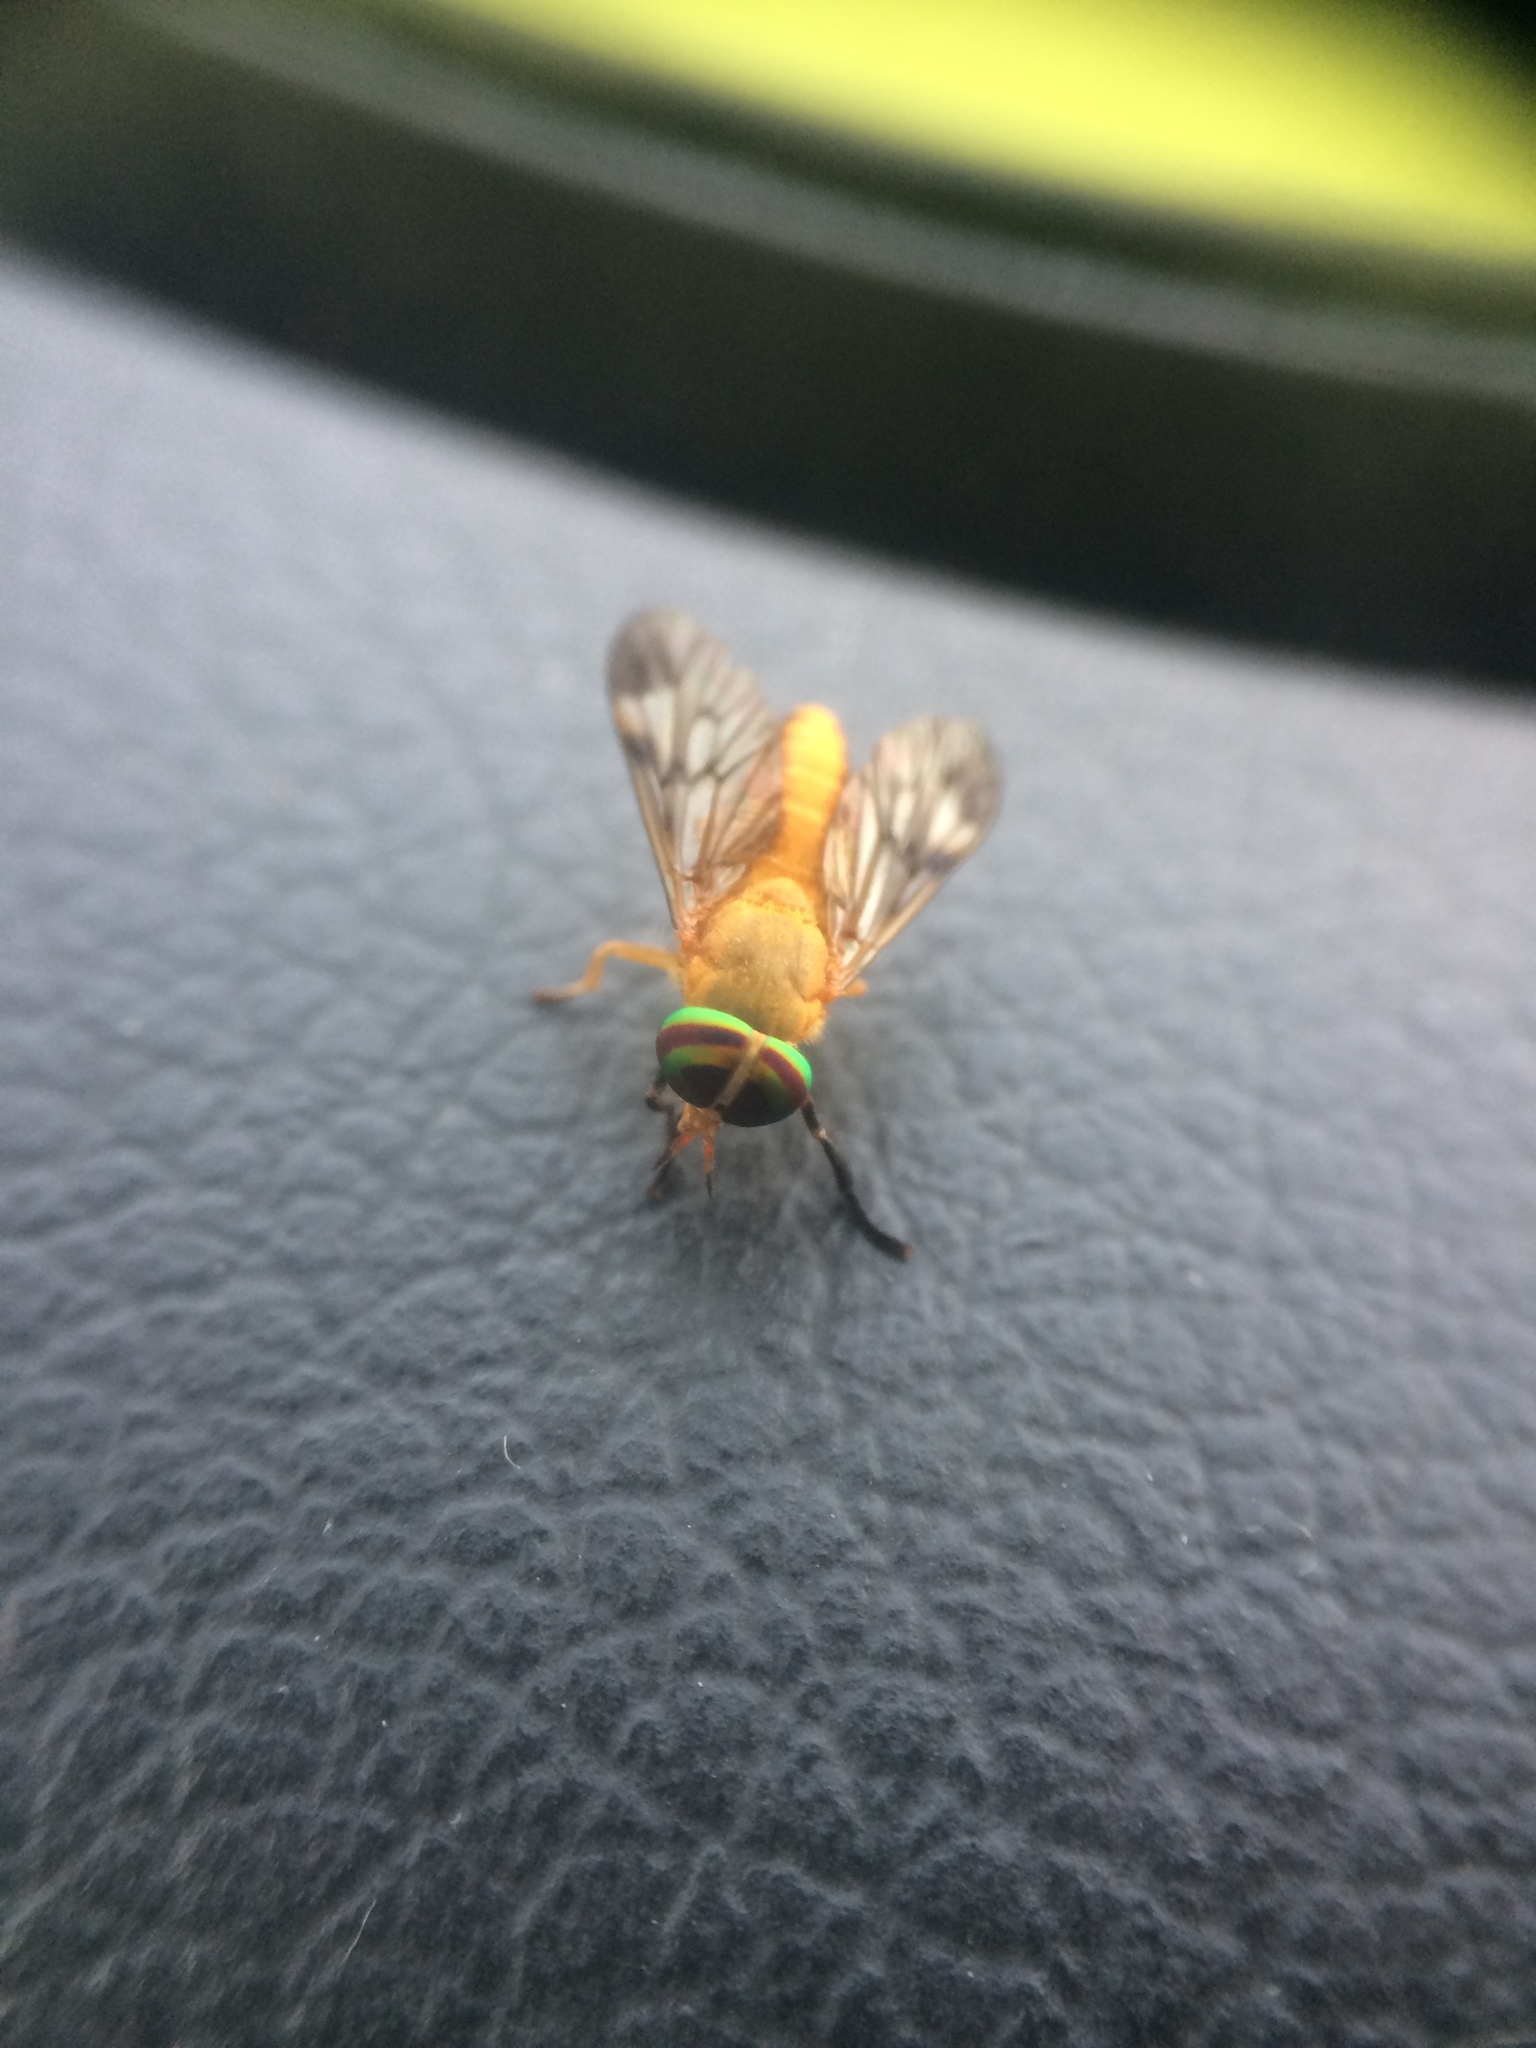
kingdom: Animalia
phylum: Arthropoda
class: Insecta
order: Diptera
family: Tabanidae
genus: Diachlorus
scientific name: Diachlorus ferrugatus
